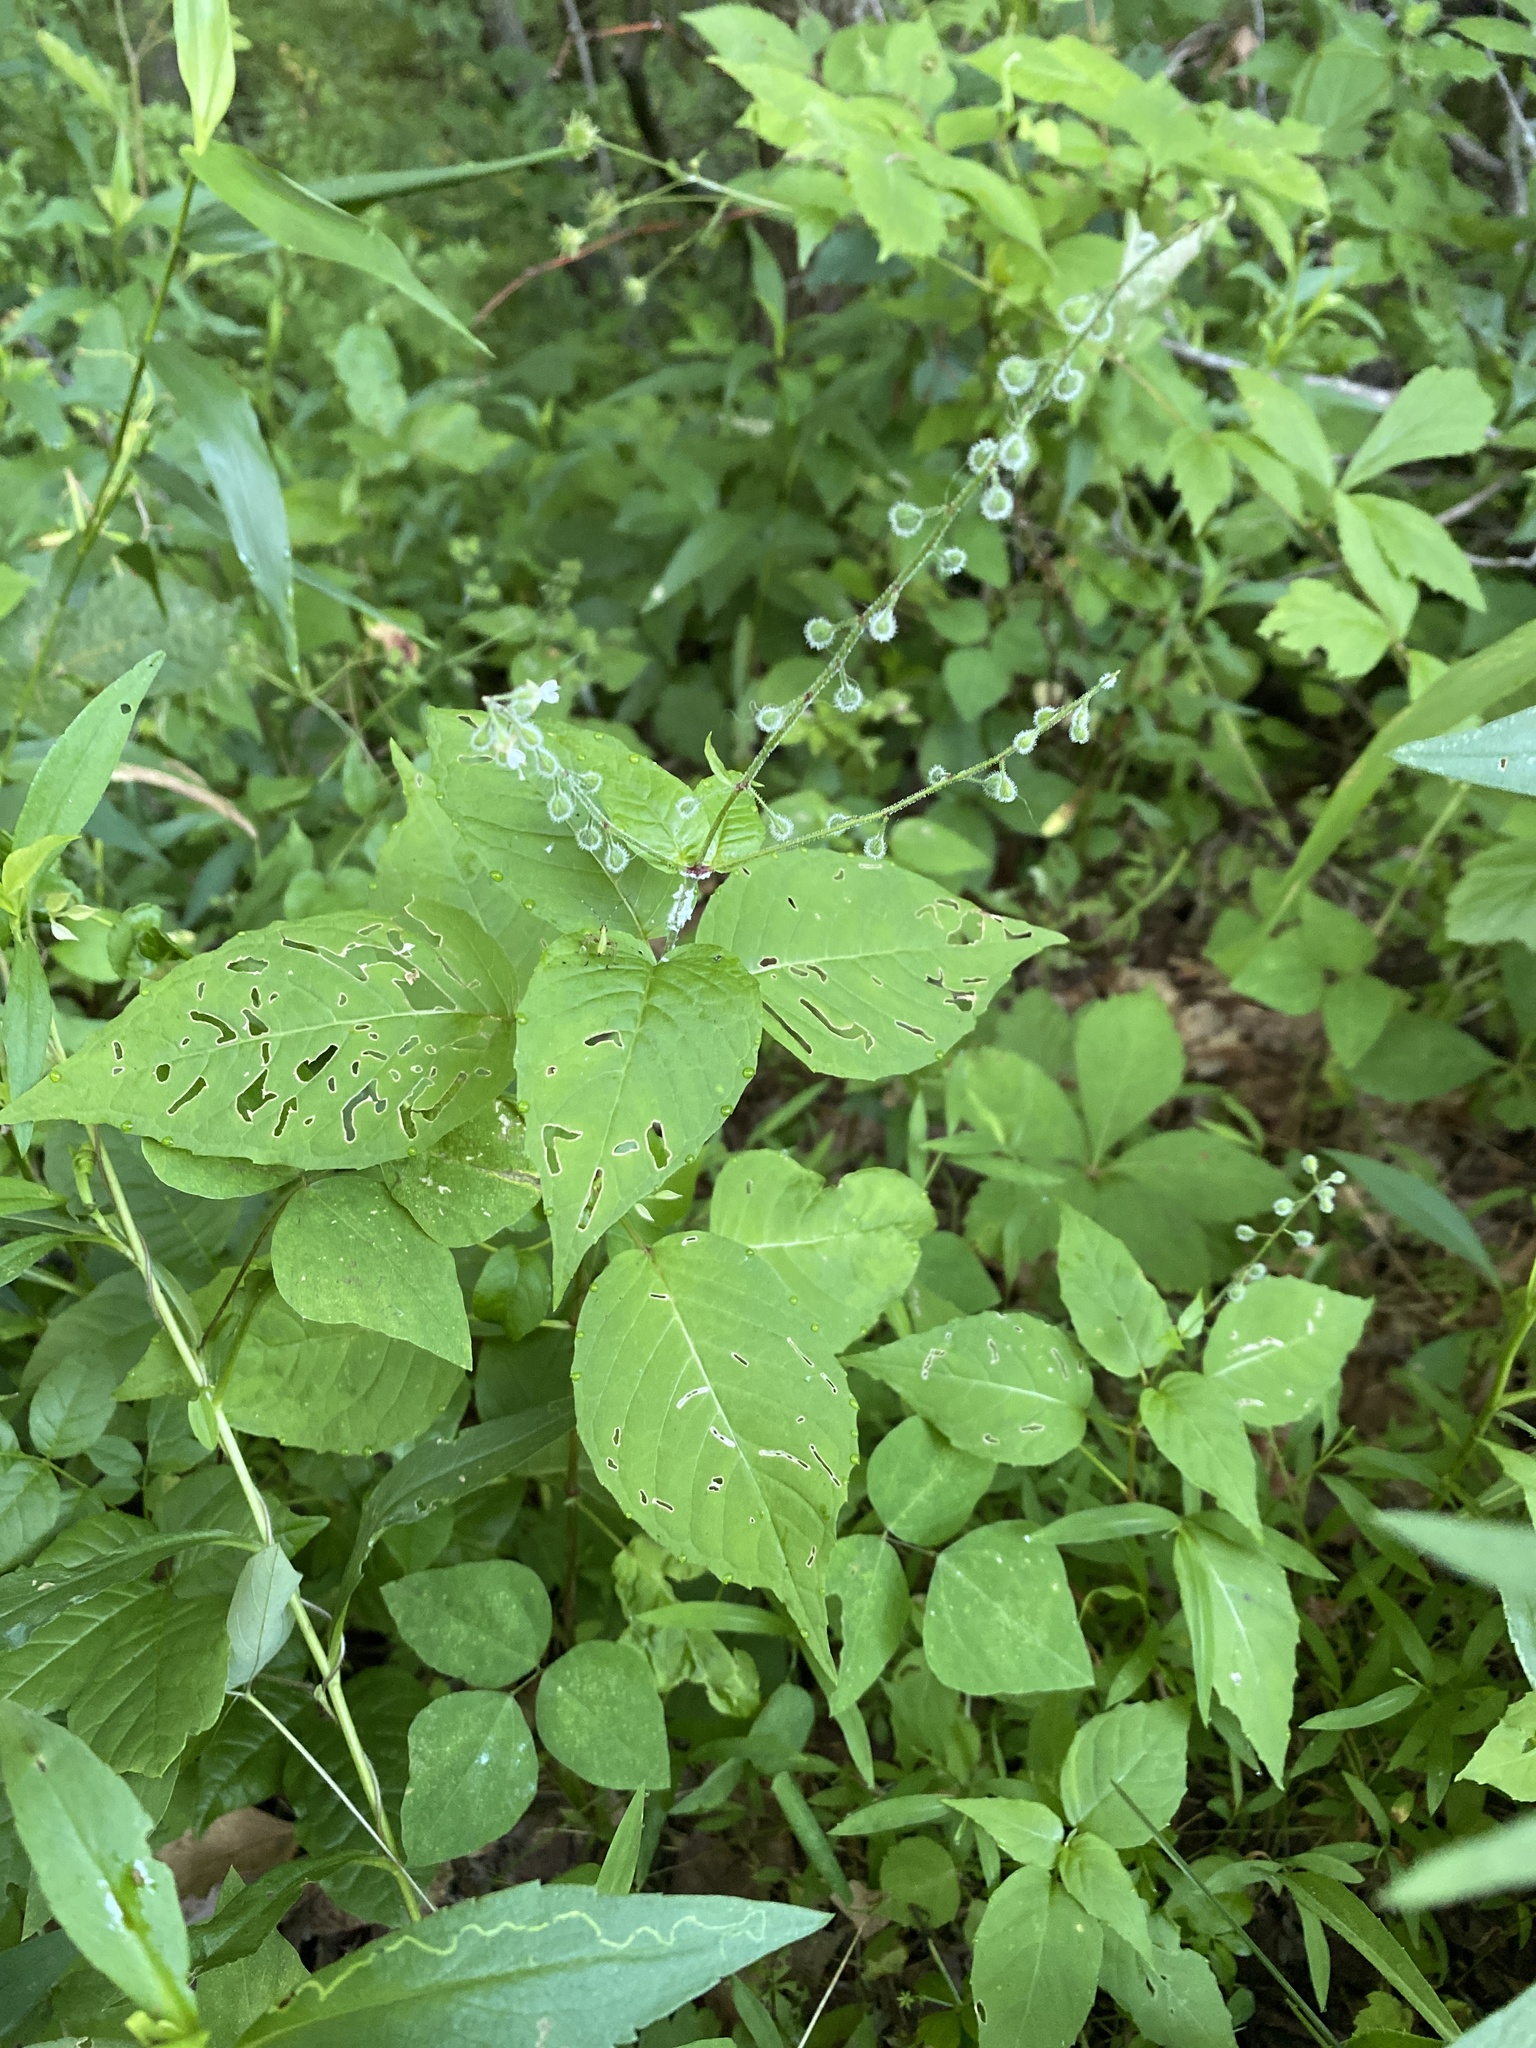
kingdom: Plantae
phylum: Tracheophyta
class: Magnoliopsida
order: Myrtales
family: Onagraceae
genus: Circaea
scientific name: Circaea canadensis
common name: Broad-leaved enchanter's nightshade
